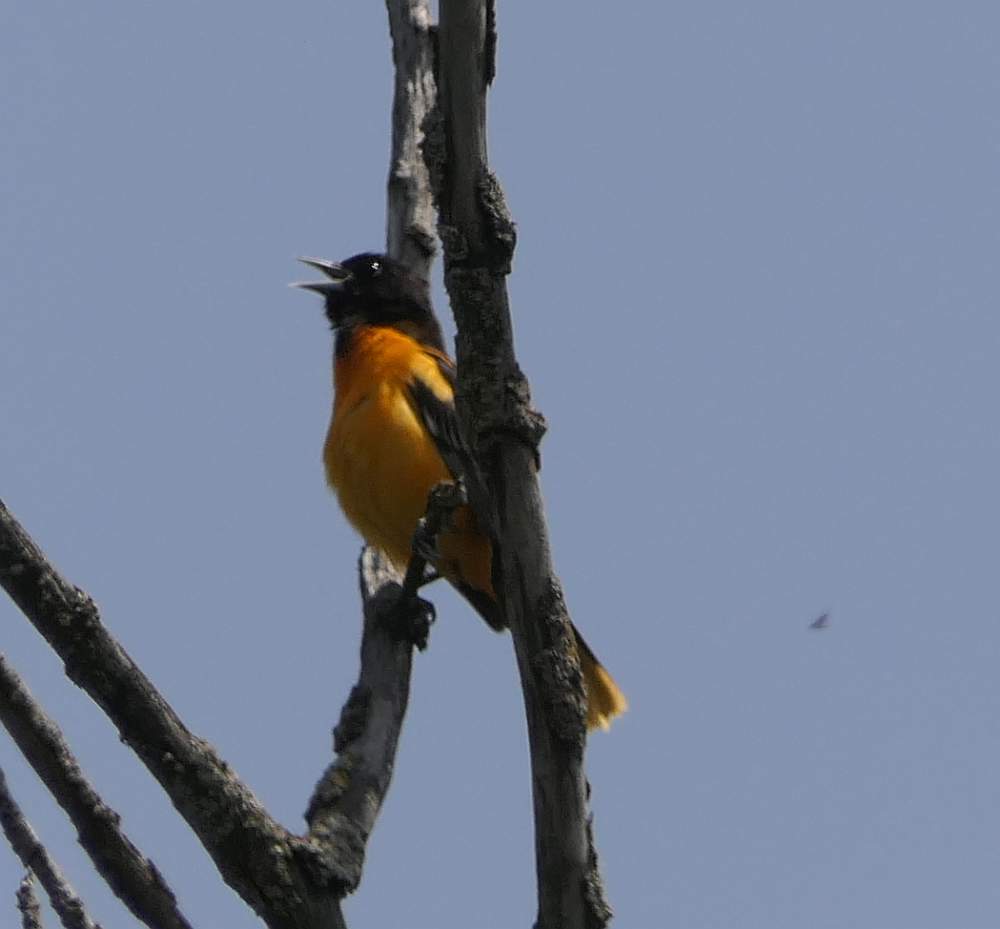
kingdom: Animalia
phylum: Chordata
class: Aves
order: Passeriformes
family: Icteridae
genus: Icterus
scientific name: Icterus galbula
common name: Baltimore oriole
